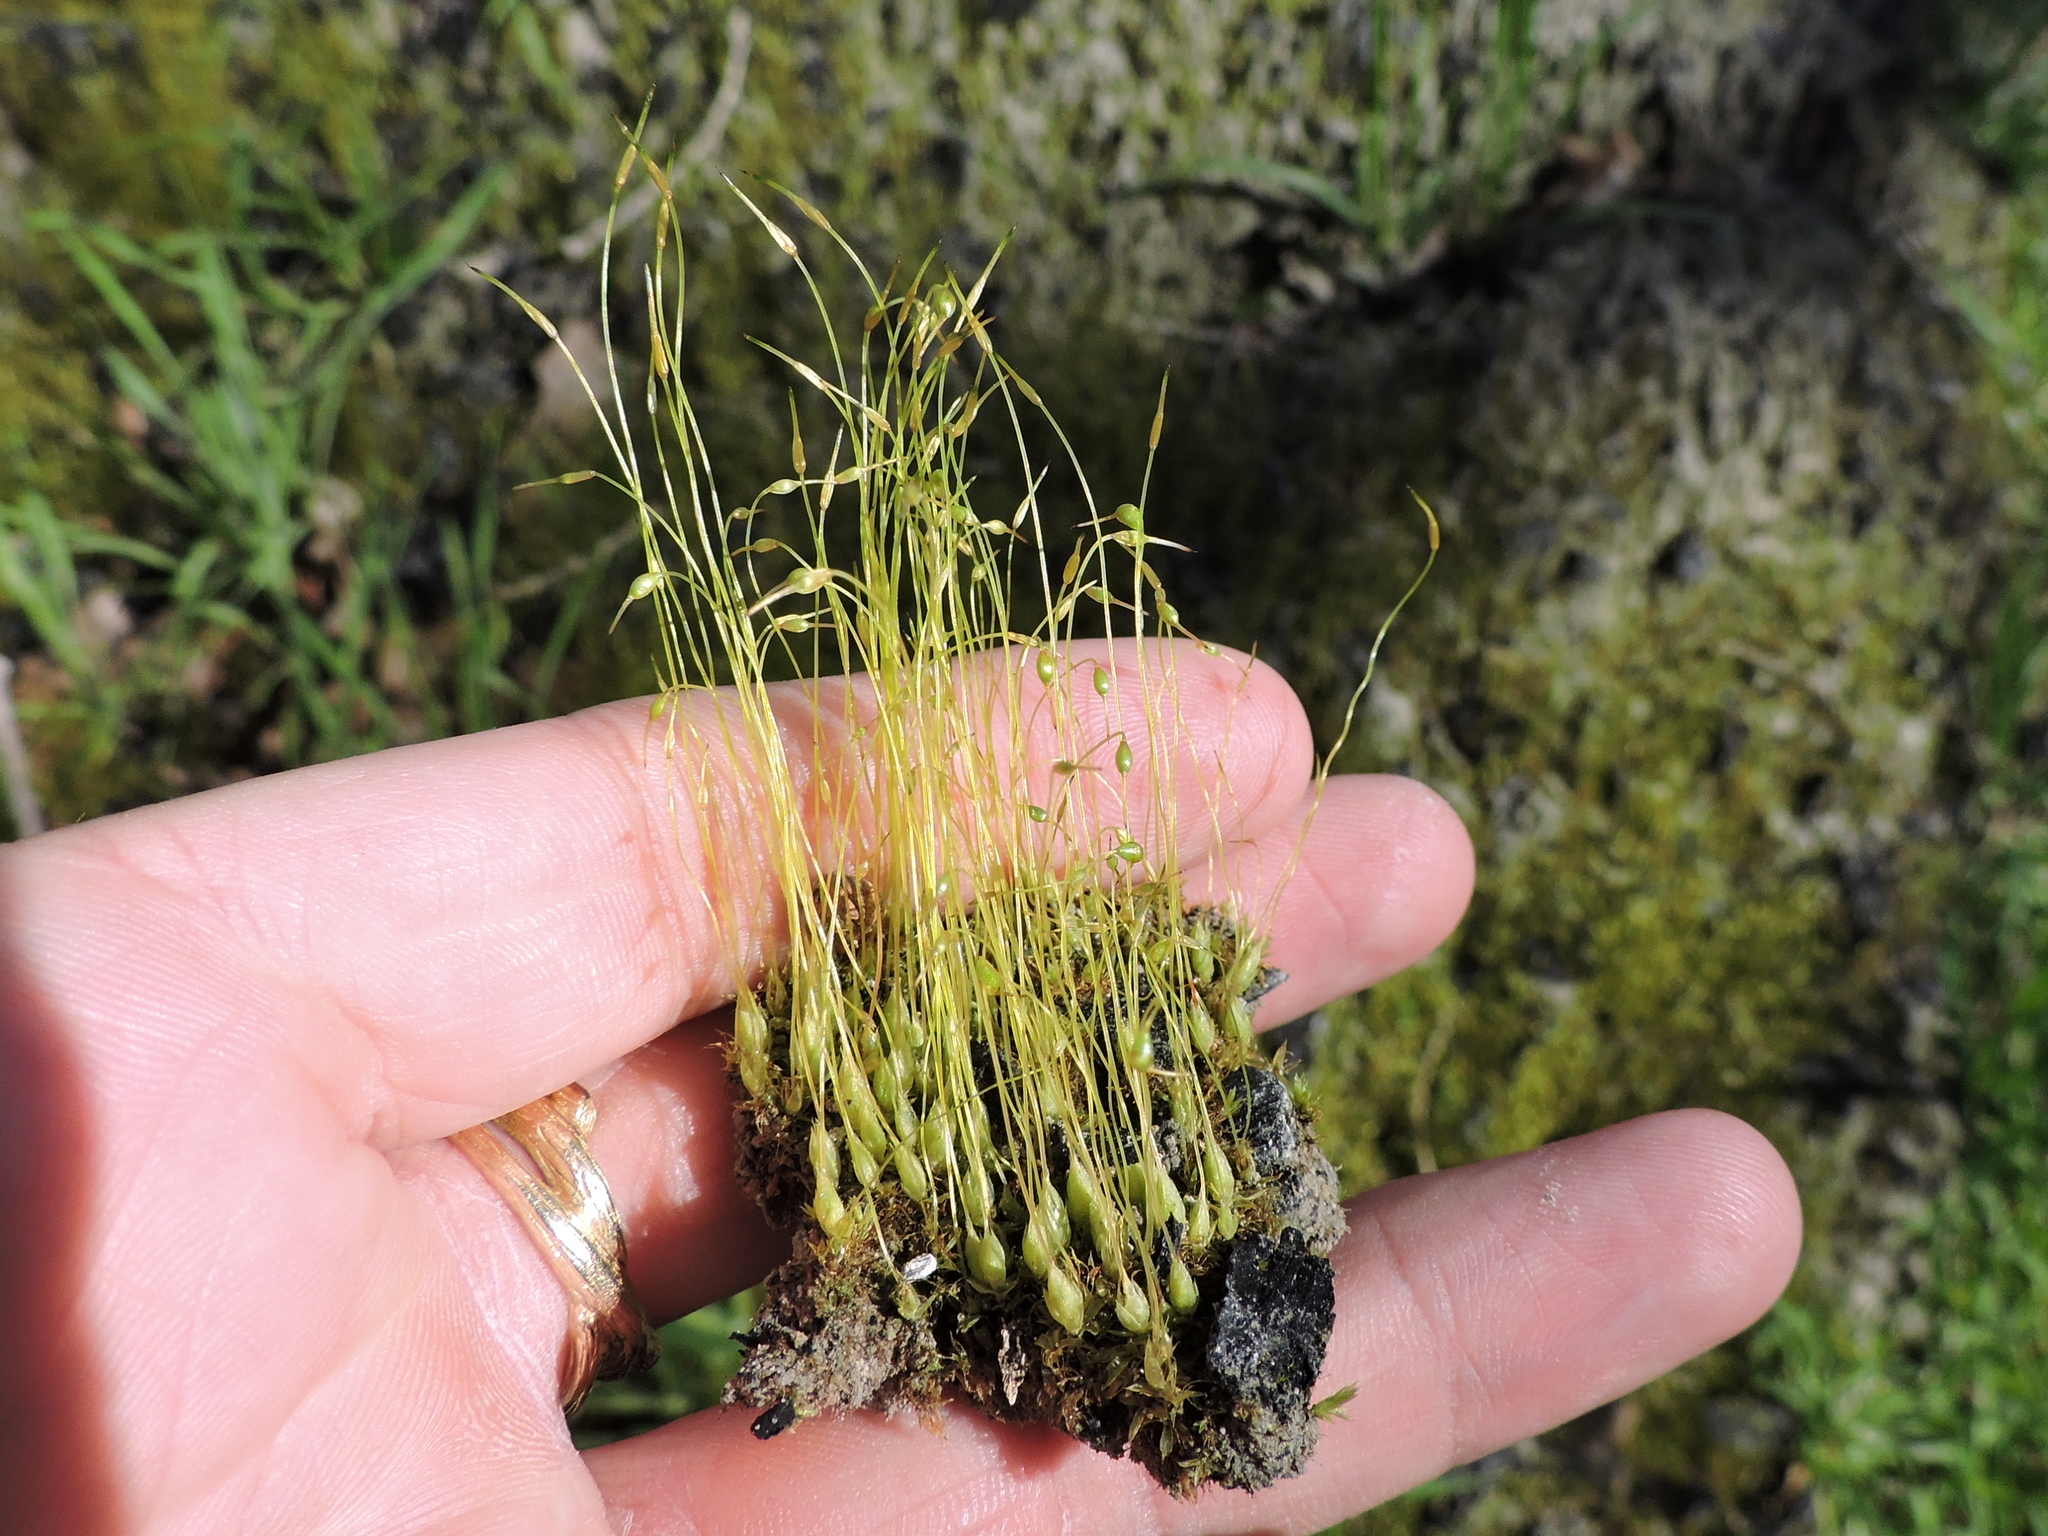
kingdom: Plantae
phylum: Bryophyta
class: Bryopsida
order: Funariales
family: Funariaceae
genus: Funaria
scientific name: Funaria hygrometrica
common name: Common cord moss
